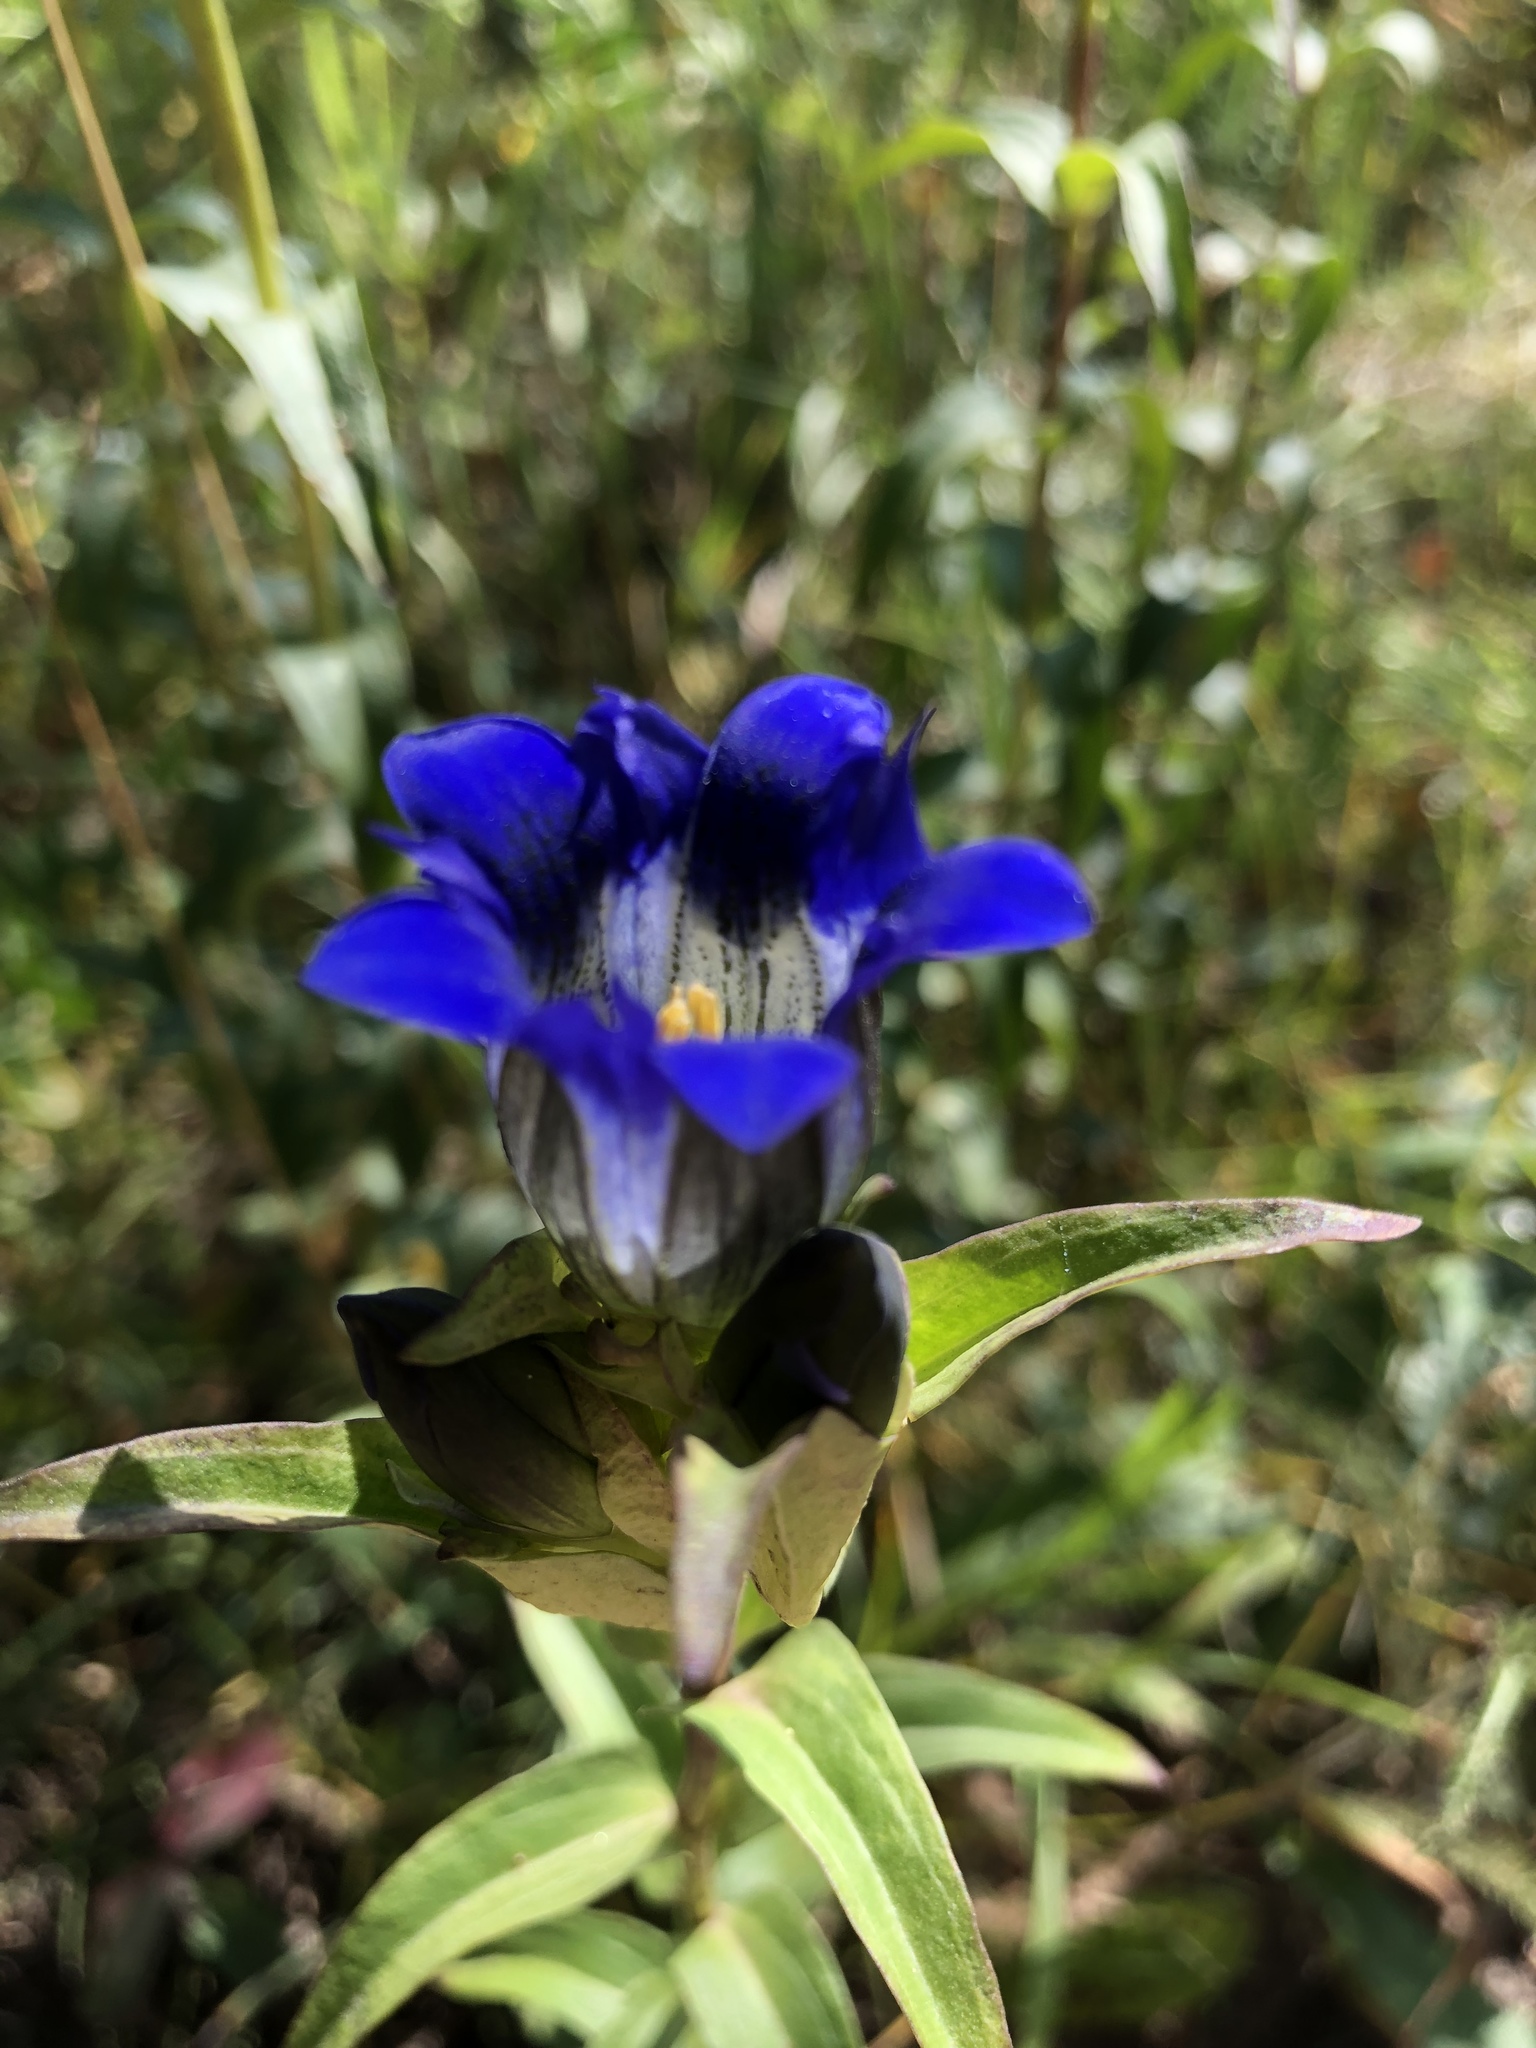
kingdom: Plantae
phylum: Tracheophyta
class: Magnoliopsida
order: Gentianales
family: Gentianaceae
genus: Gentiana
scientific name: Gentiana parryi
